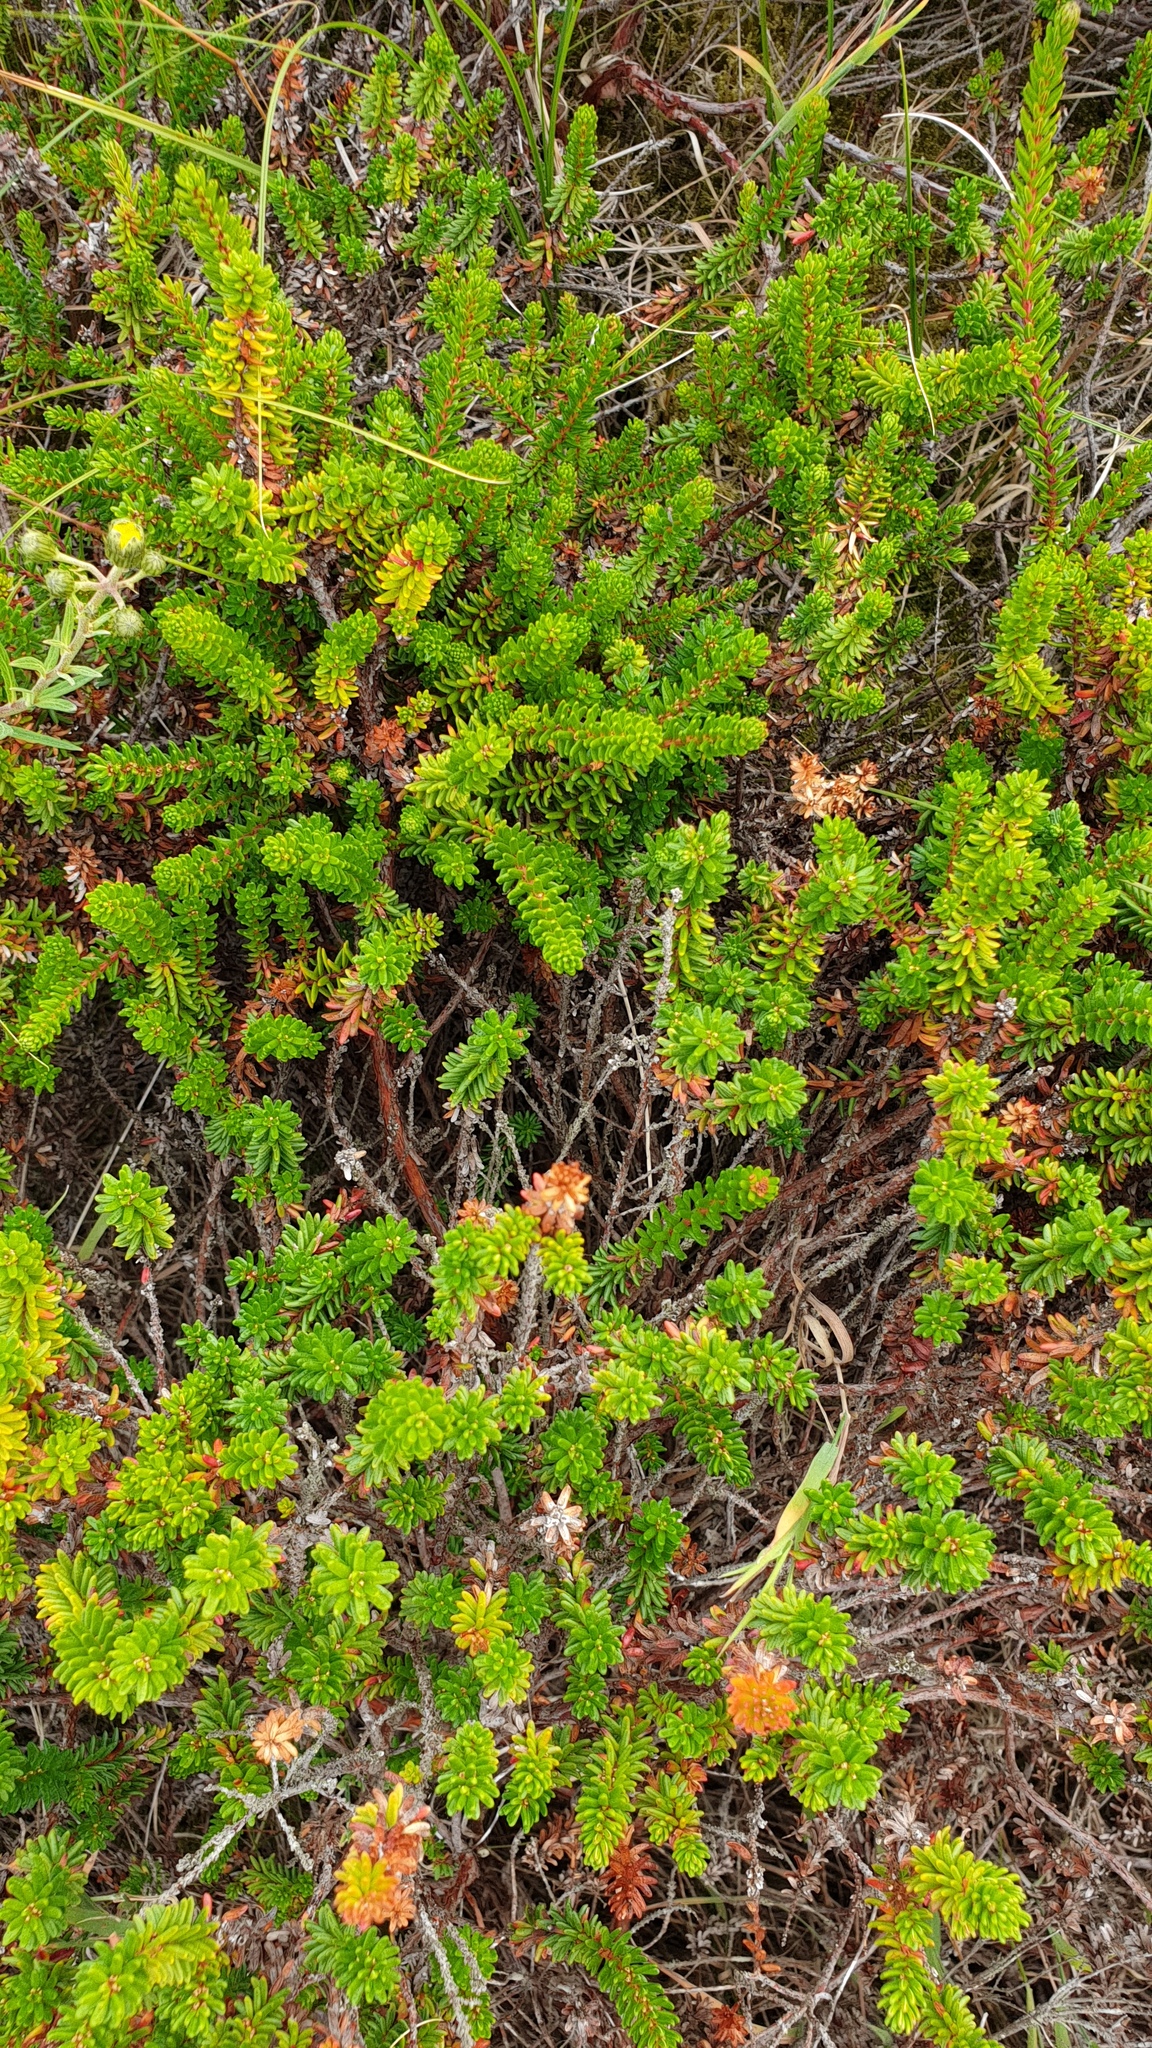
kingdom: Plantae
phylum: Tracheophyta
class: Magnoliopsida
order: Ericales
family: Ericaceae
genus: Empetrum
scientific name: Empetrum nigrum
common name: Black crowberry
